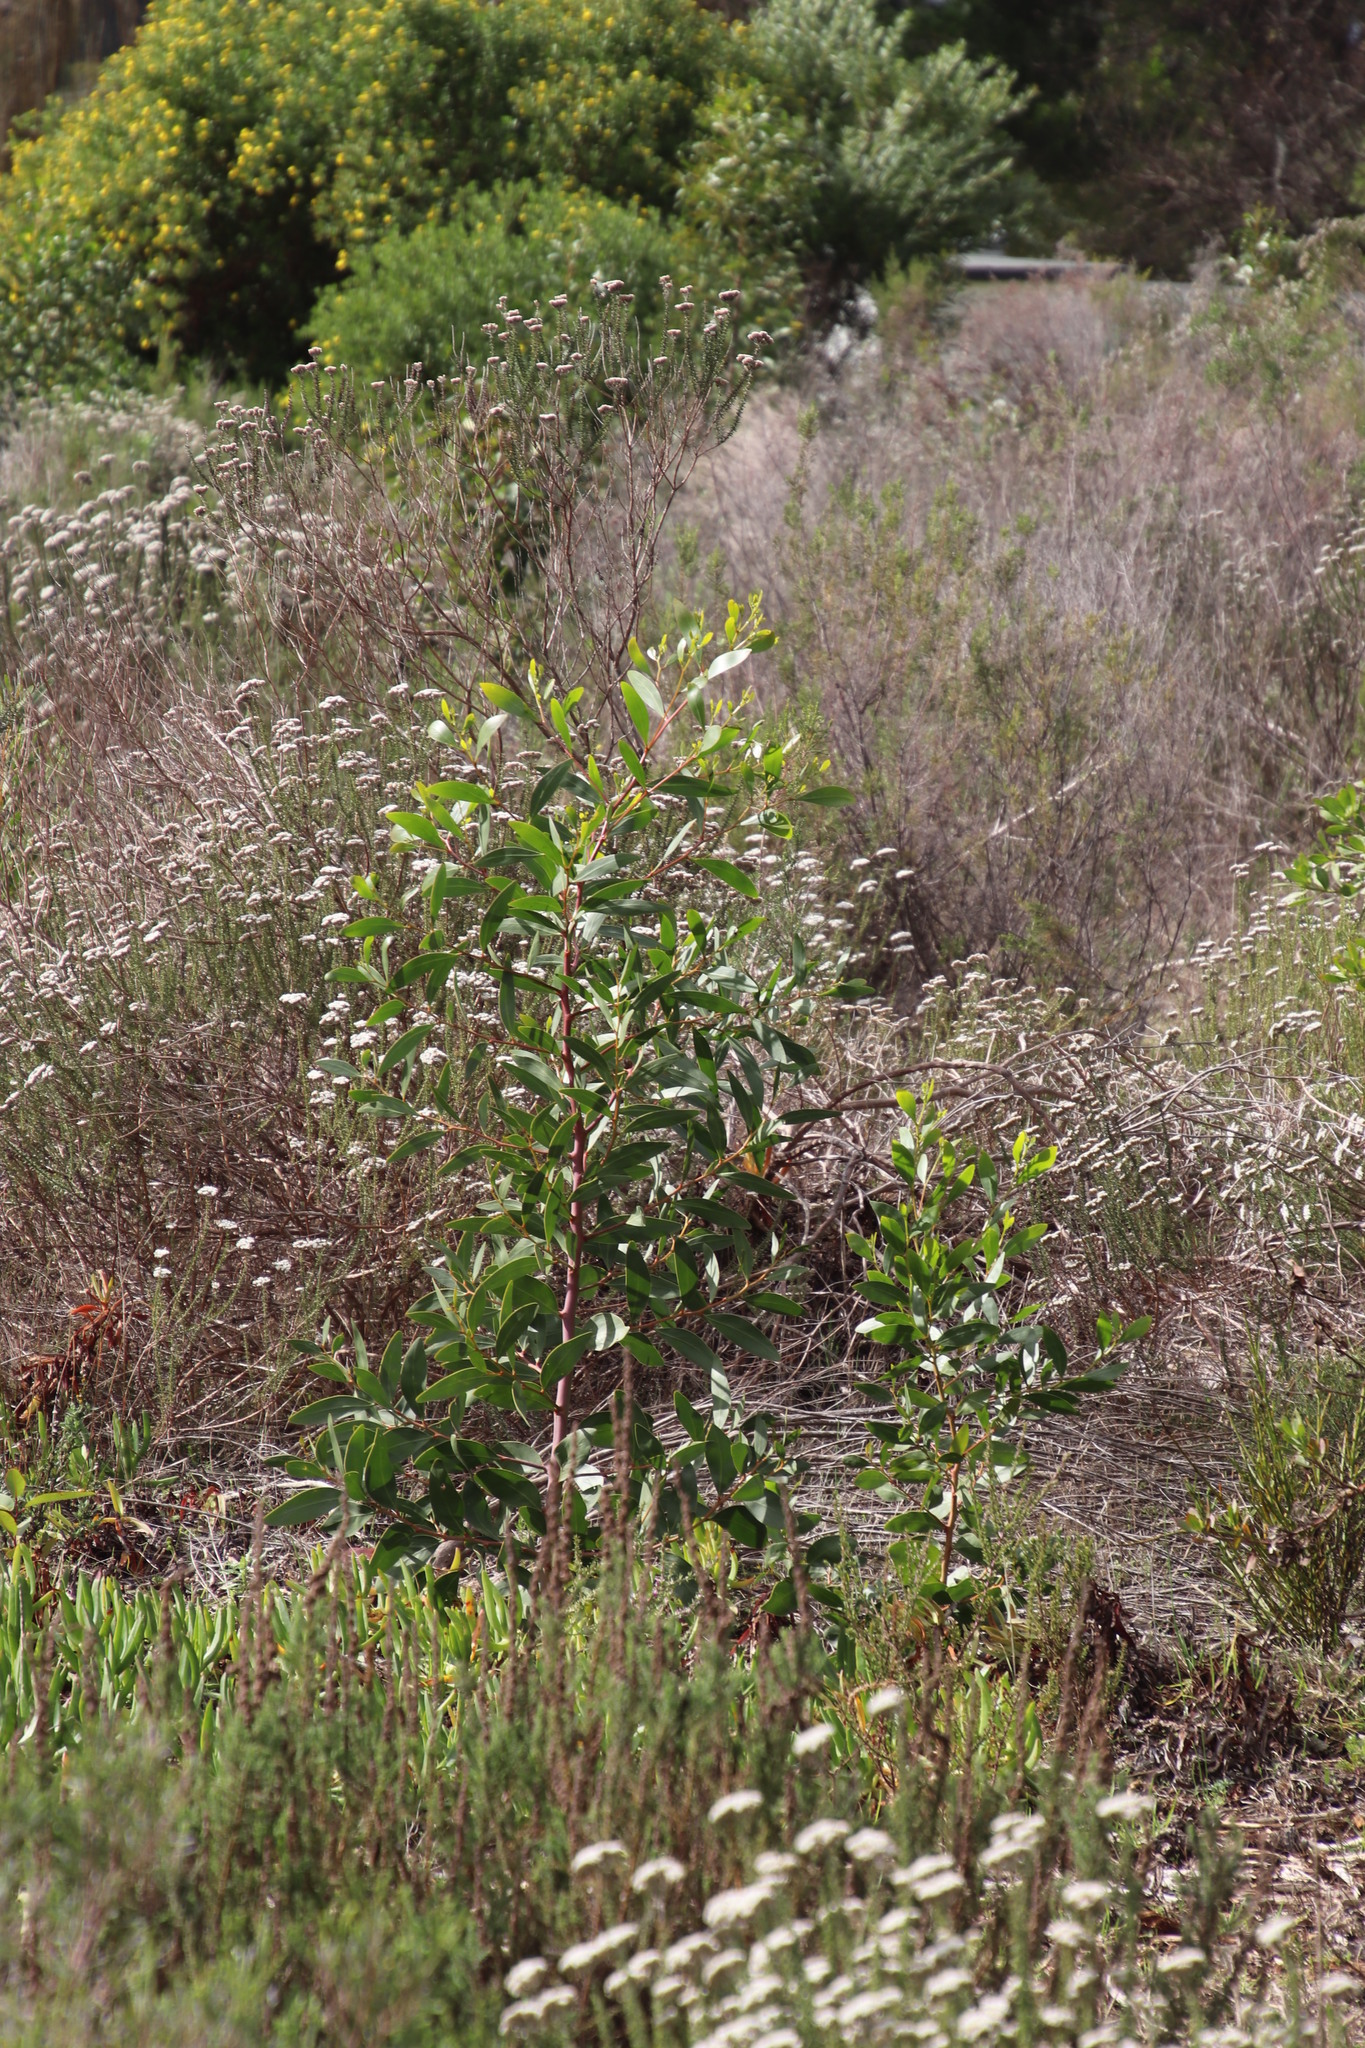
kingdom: Plantae
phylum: Tracheophyta
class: Magnoliopsida
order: Fabales
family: Fabaceae
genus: Acacia
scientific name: Acacia pycnantha
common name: Golden wattle
